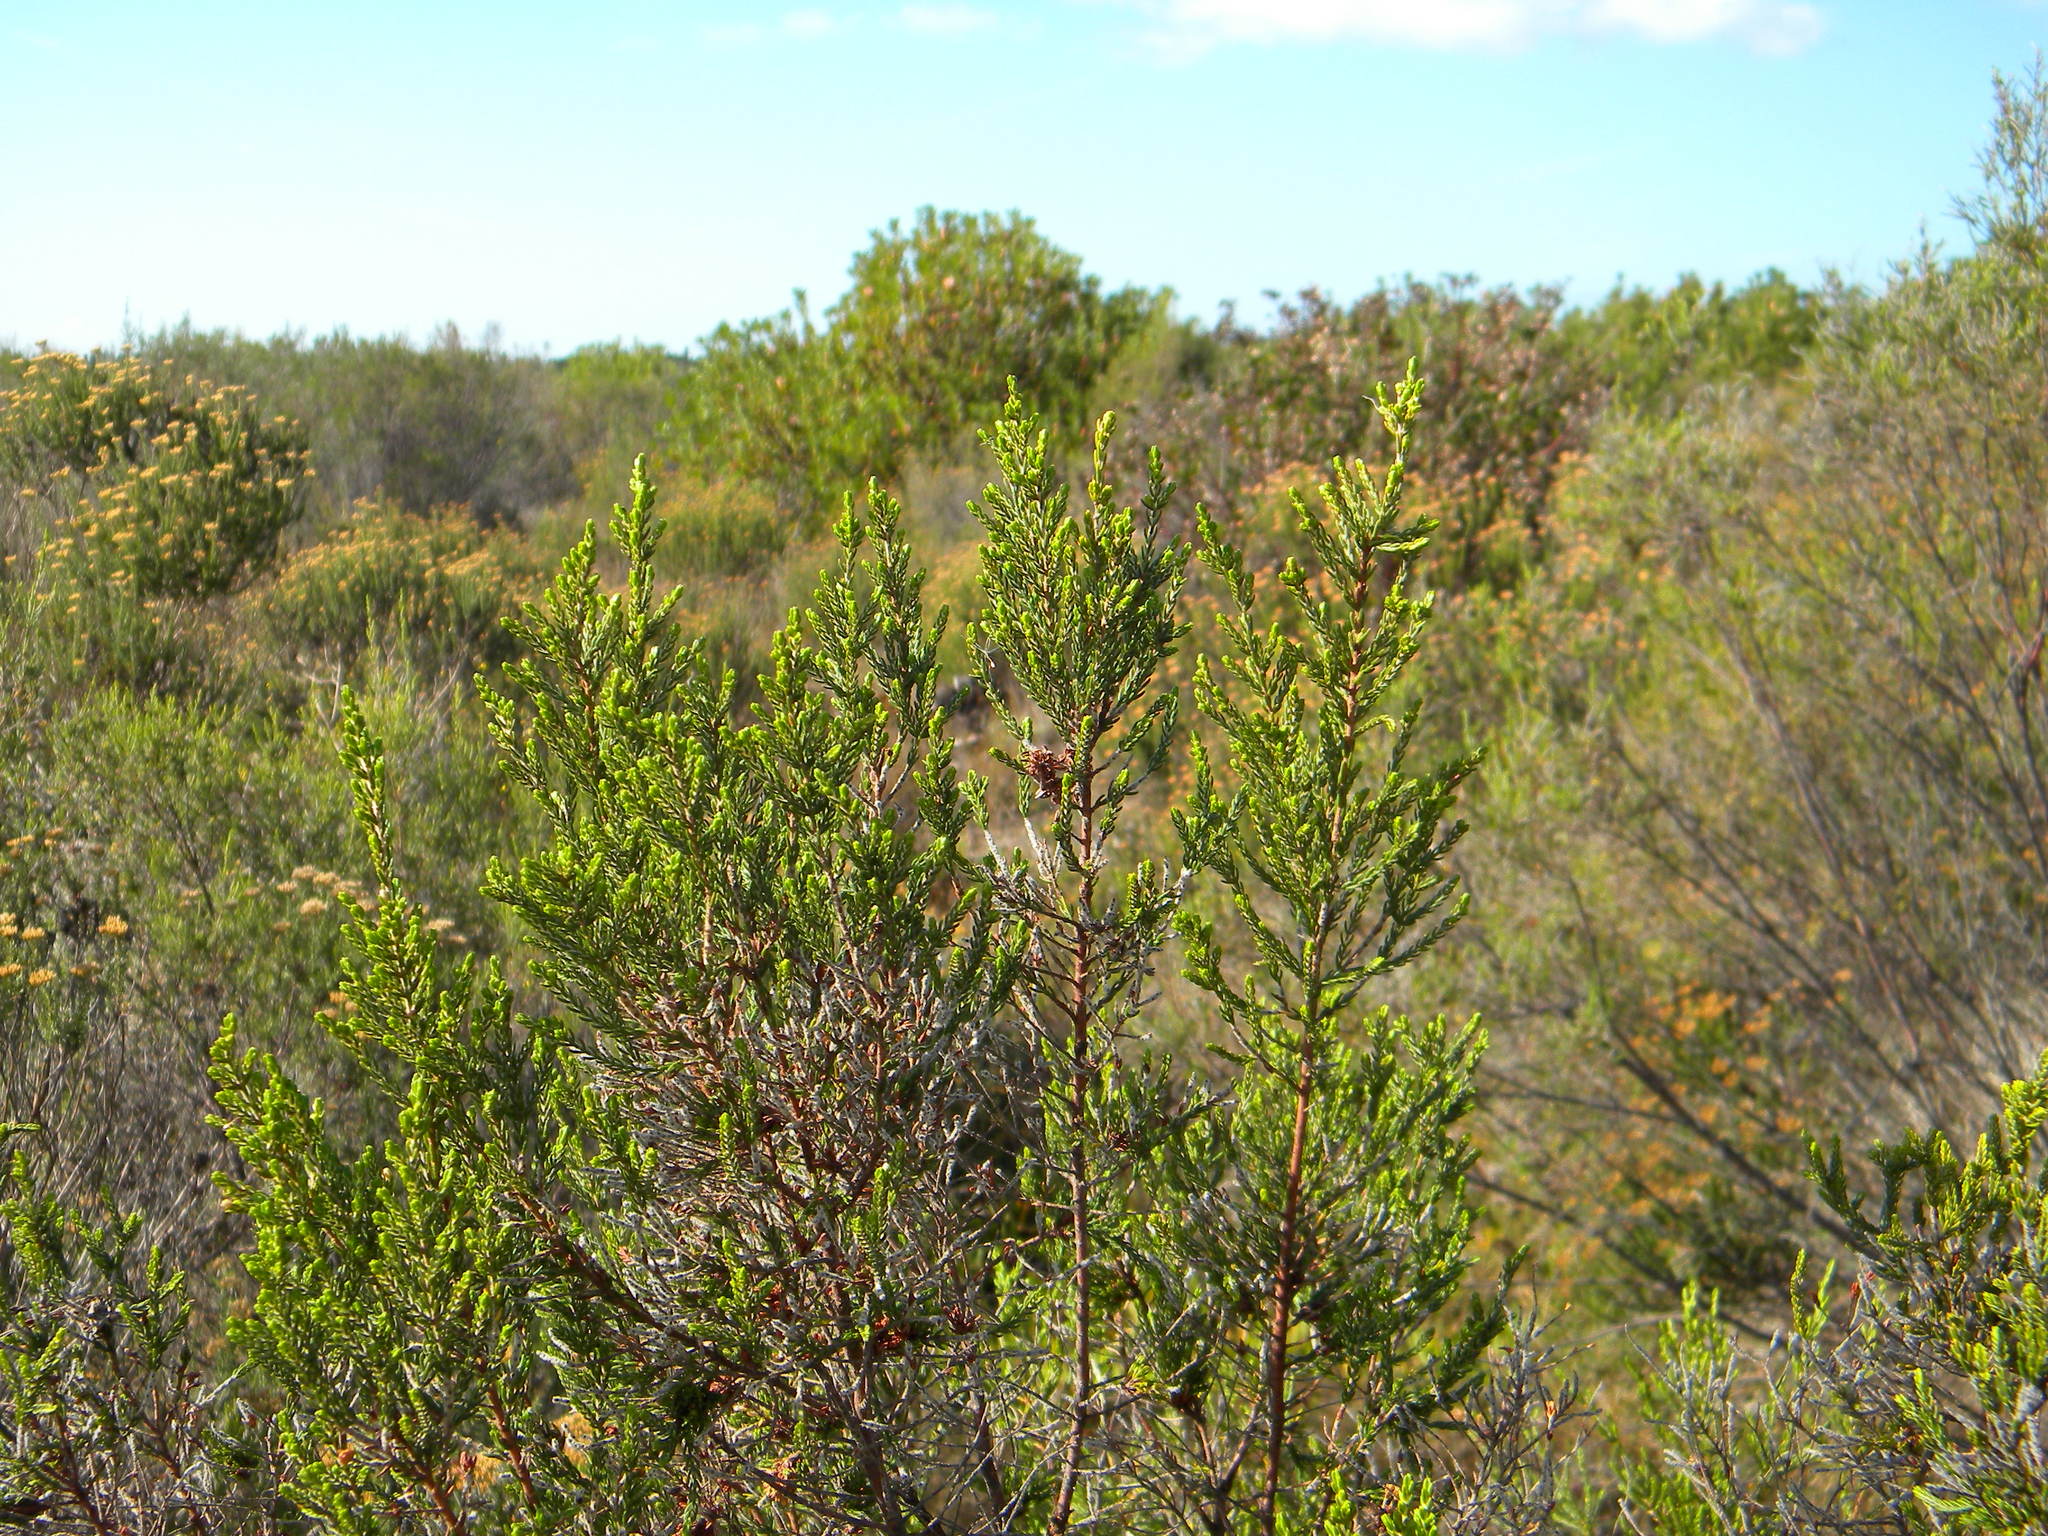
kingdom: Plantae
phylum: Tracheophyta
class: Magnoliopsida
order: Malvales
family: Thymelaeaceae
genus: Passerina
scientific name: Passerina corymbosa
